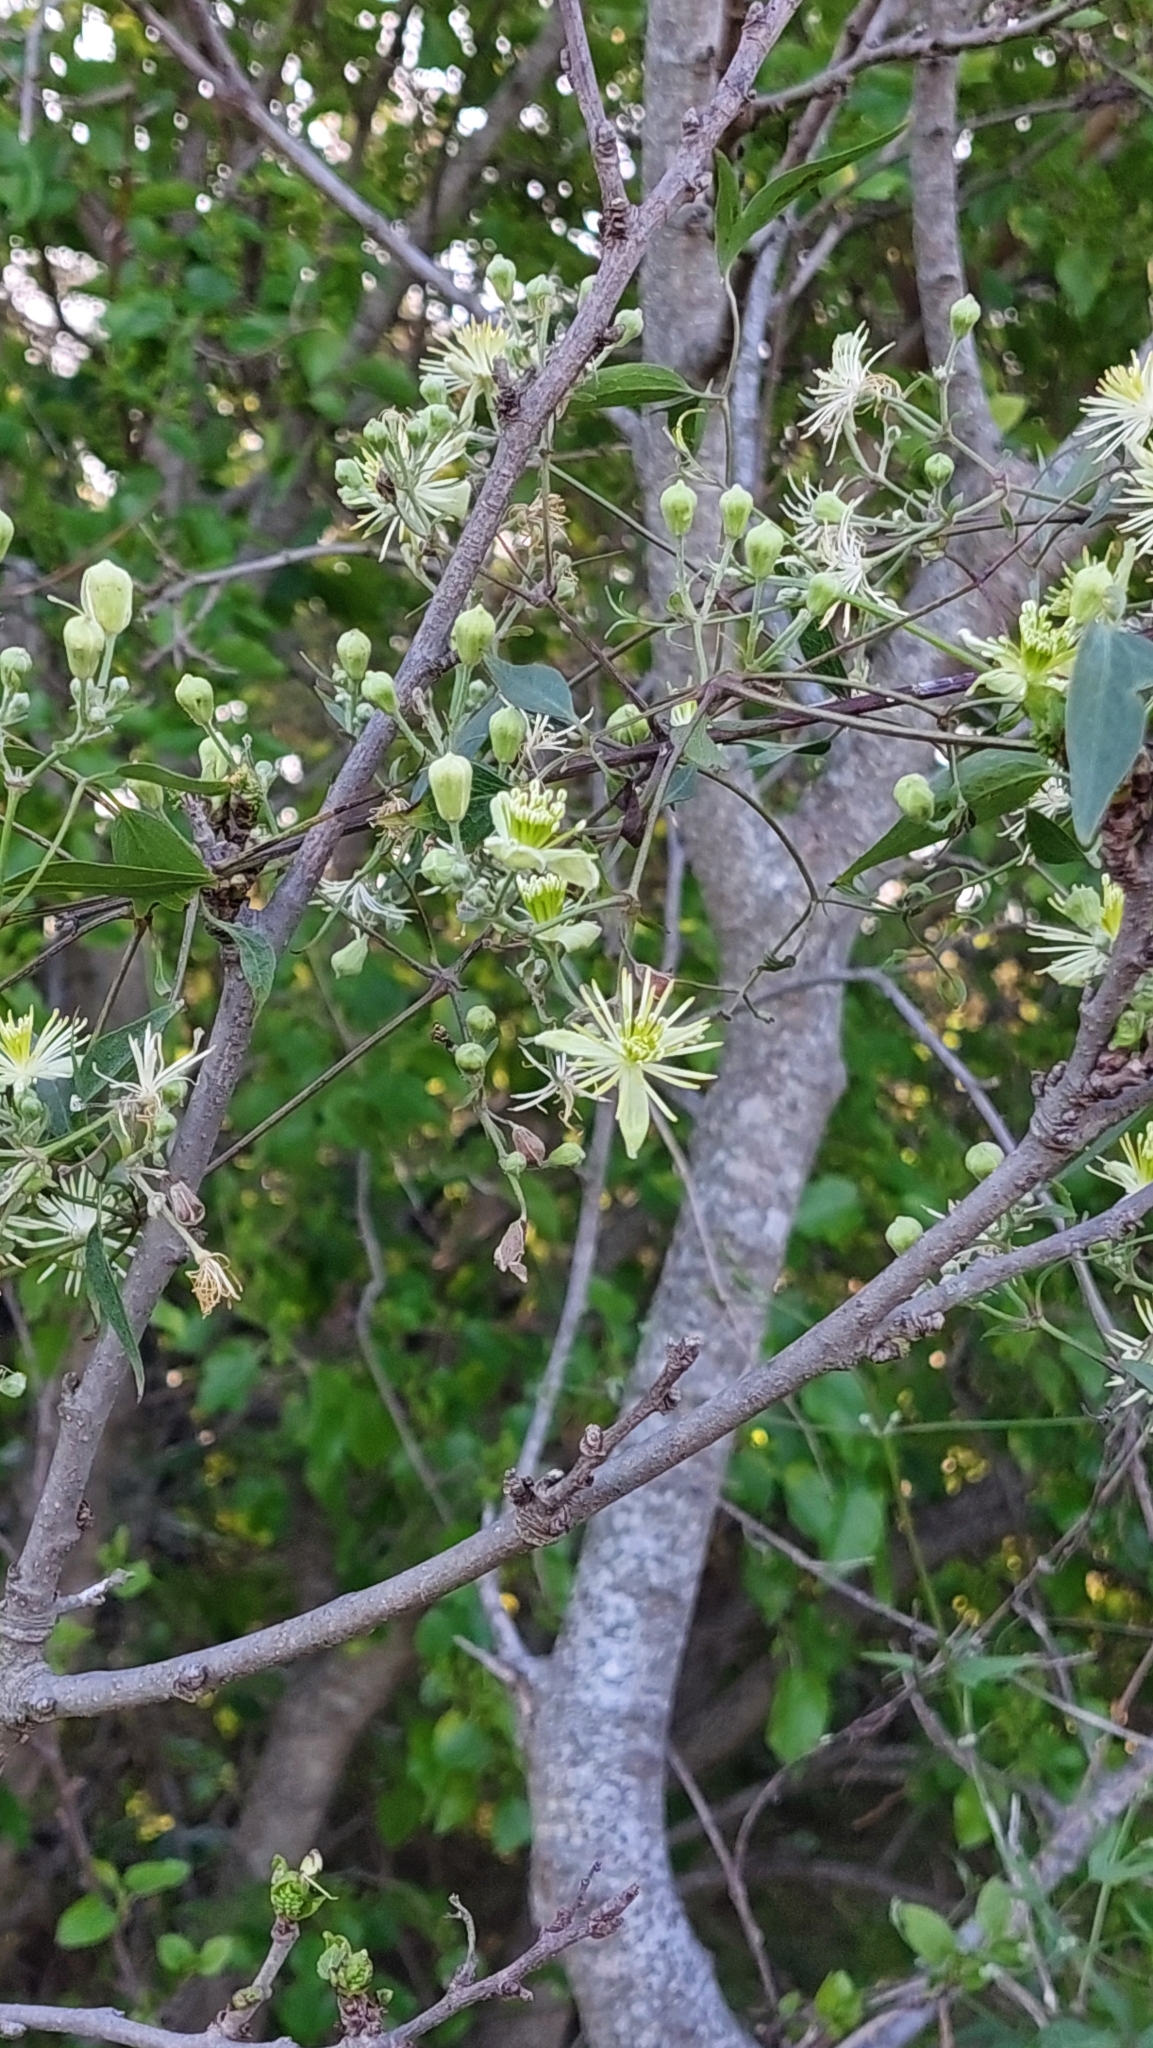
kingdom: Plantae
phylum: Tracheophyta
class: Magnoliopsida
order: Ranunculales
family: Ranunculaceae
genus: Clematis
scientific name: Clematis montevidensis
